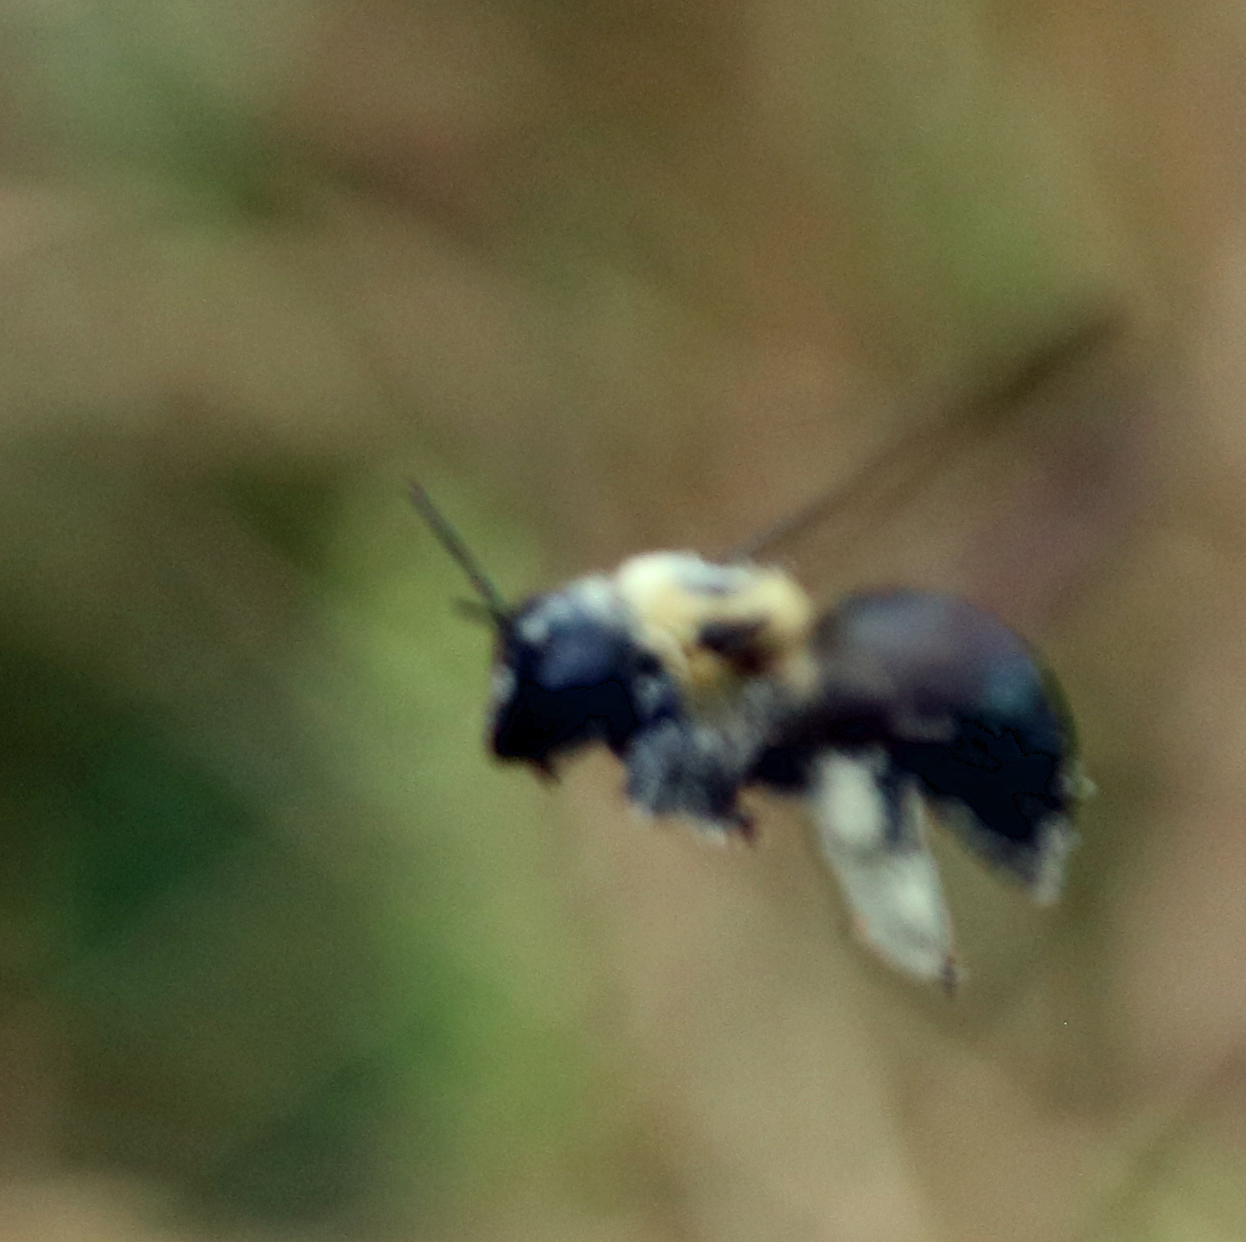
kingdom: Animalia
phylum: Arthropoda
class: Insecta
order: Hymenoptera
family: Apidae
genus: Xylocopa
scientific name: Xylocopa virginica
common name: Carpenter bee
